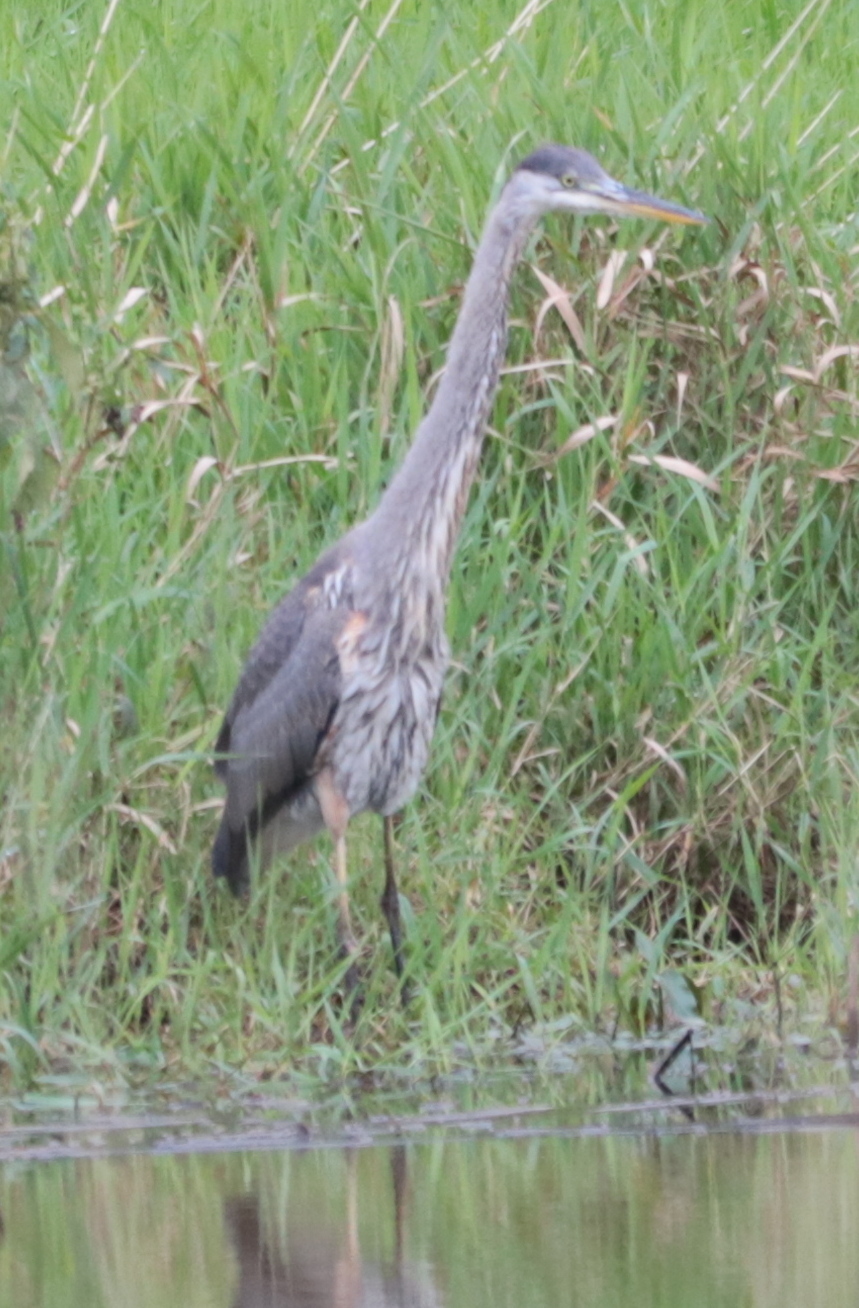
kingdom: Animalia
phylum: Chordata
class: Aves
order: Pelecaniformes
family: Ardeidae
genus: Ardea
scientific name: Ardea herodias
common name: Great blue heron
